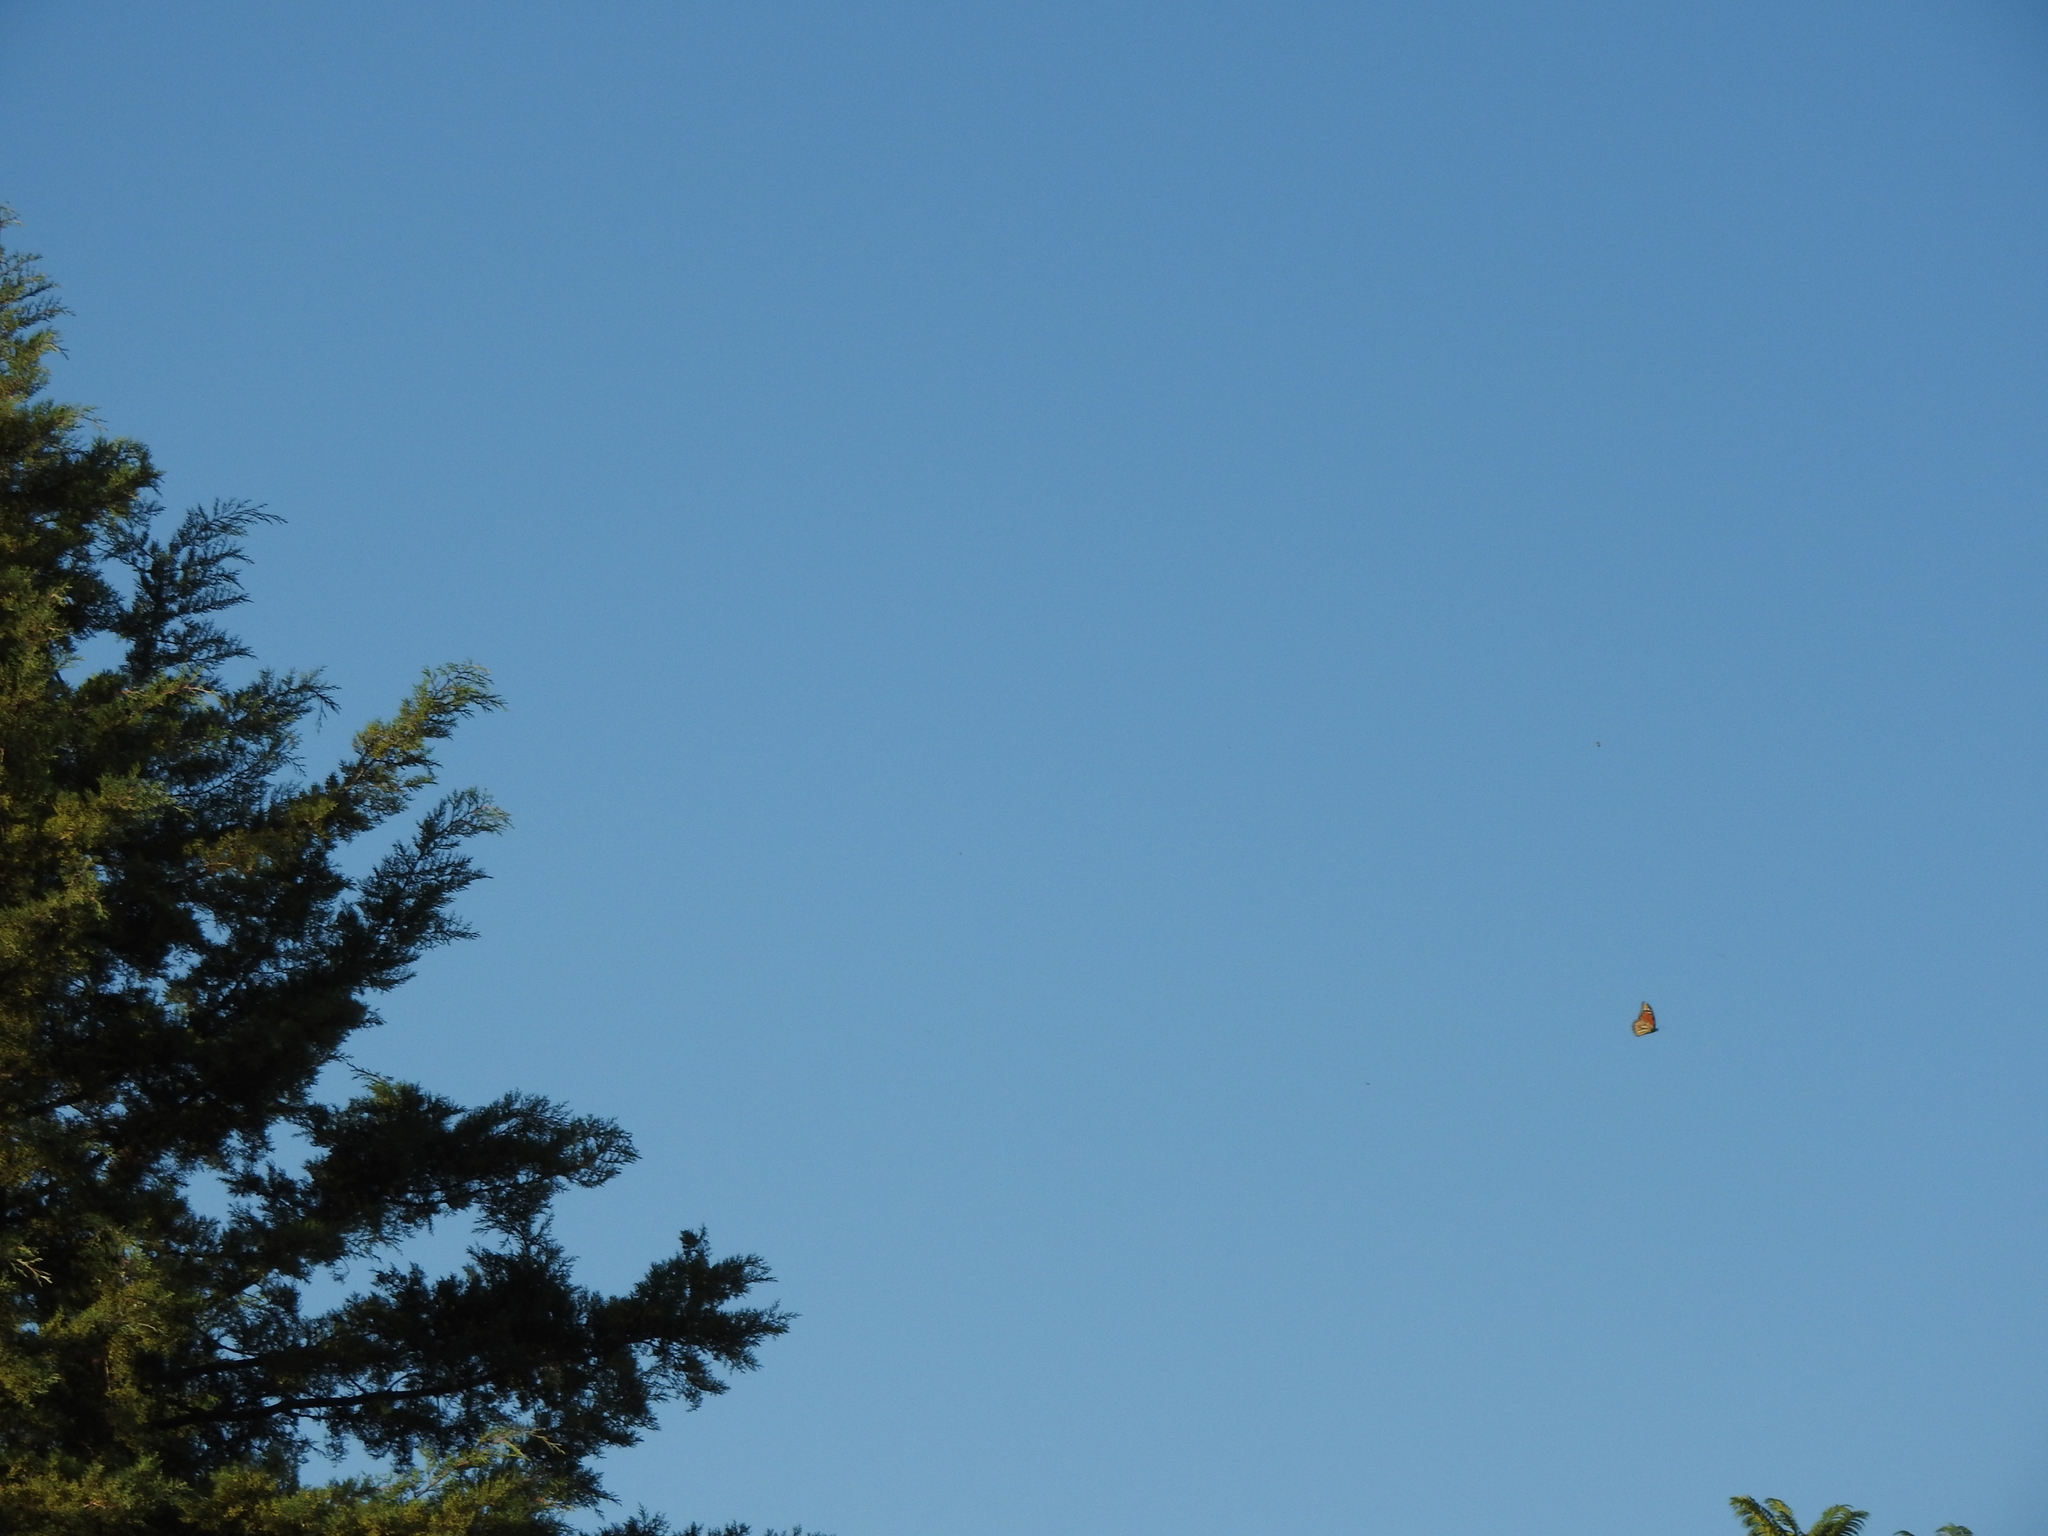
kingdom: Animalia
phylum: Arthropoda
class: Insecta
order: Lepidoptera
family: Nymphalidae
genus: Danaus
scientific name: Danaus plexippus
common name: Monarch
